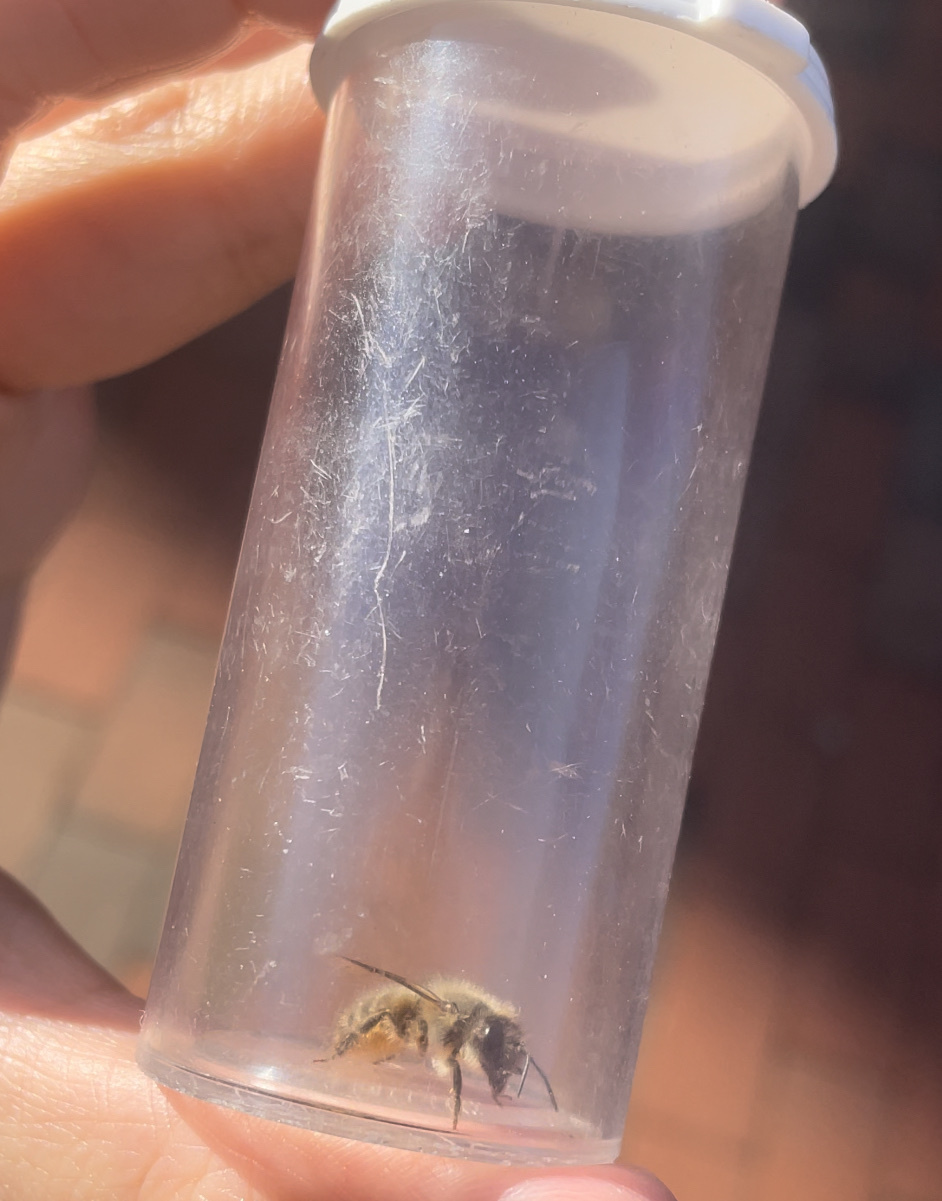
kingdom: Animalia
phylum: Arthropoda
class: Insecta
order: Hymenoptera
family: Megachilidae
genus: Osmia
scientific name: Osmia cornifrons
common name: Horn-faced bee
